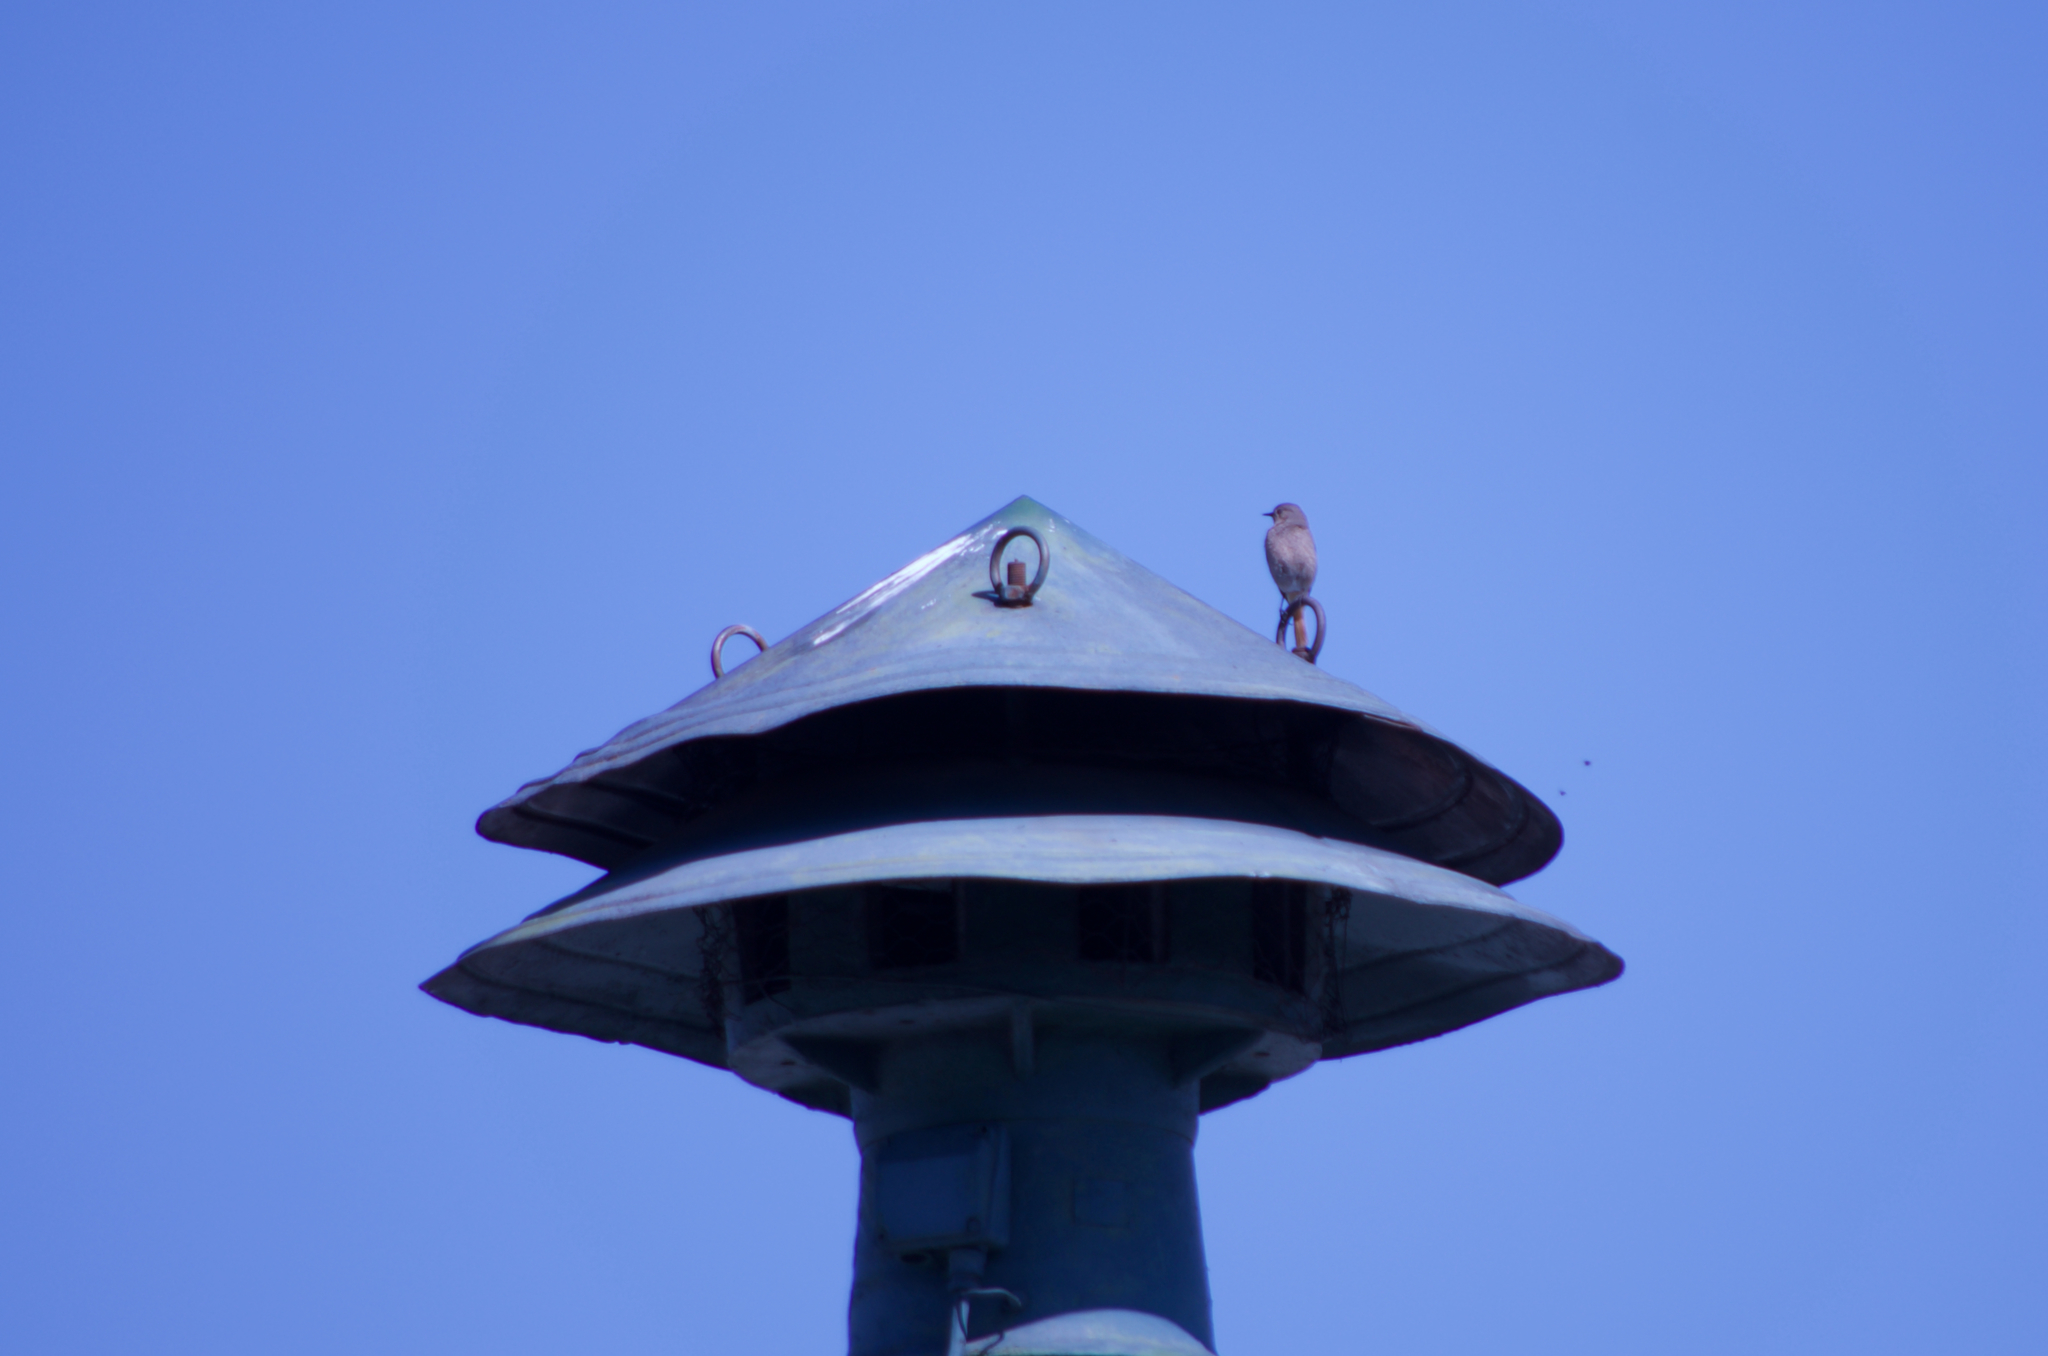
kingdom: Animalia
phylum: Chordata
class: Aves
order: Passeriformes
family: Muscicapidae
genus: Phoenicurus
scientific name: Phoenicurus ochruros
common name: Black redstart
